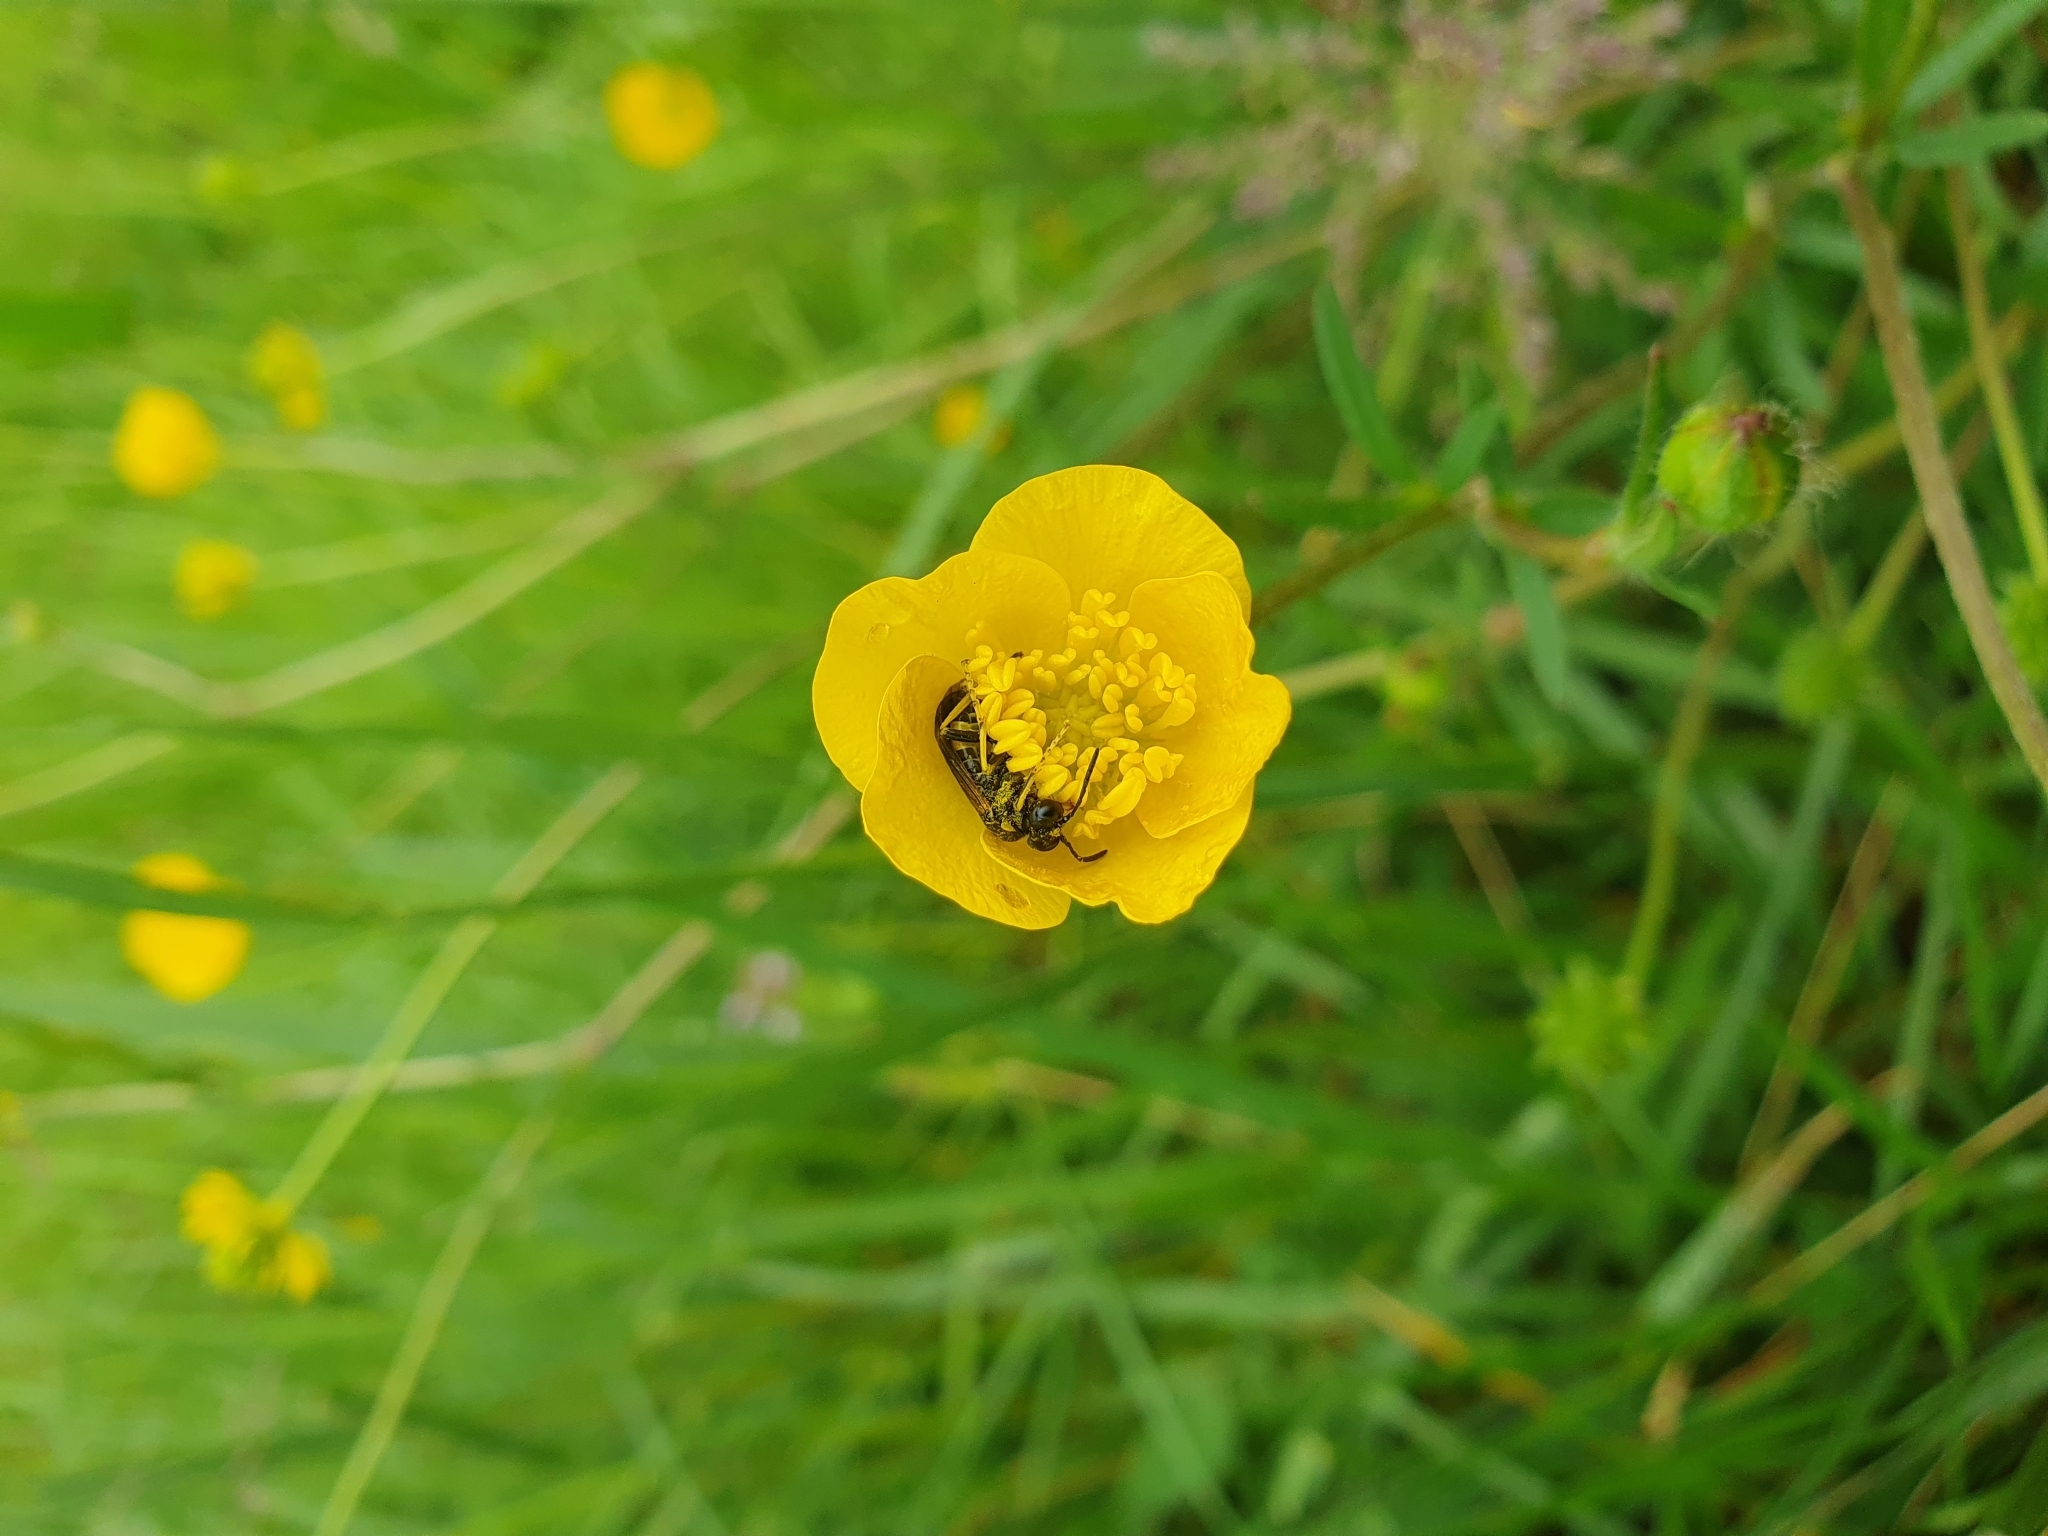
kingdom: Animalia
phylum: Arthropoda
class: Insecta
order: Hymenoptera
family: Tenthredinidae
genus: Paratenthredo
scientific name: Paratenthredo frauenfeldii
